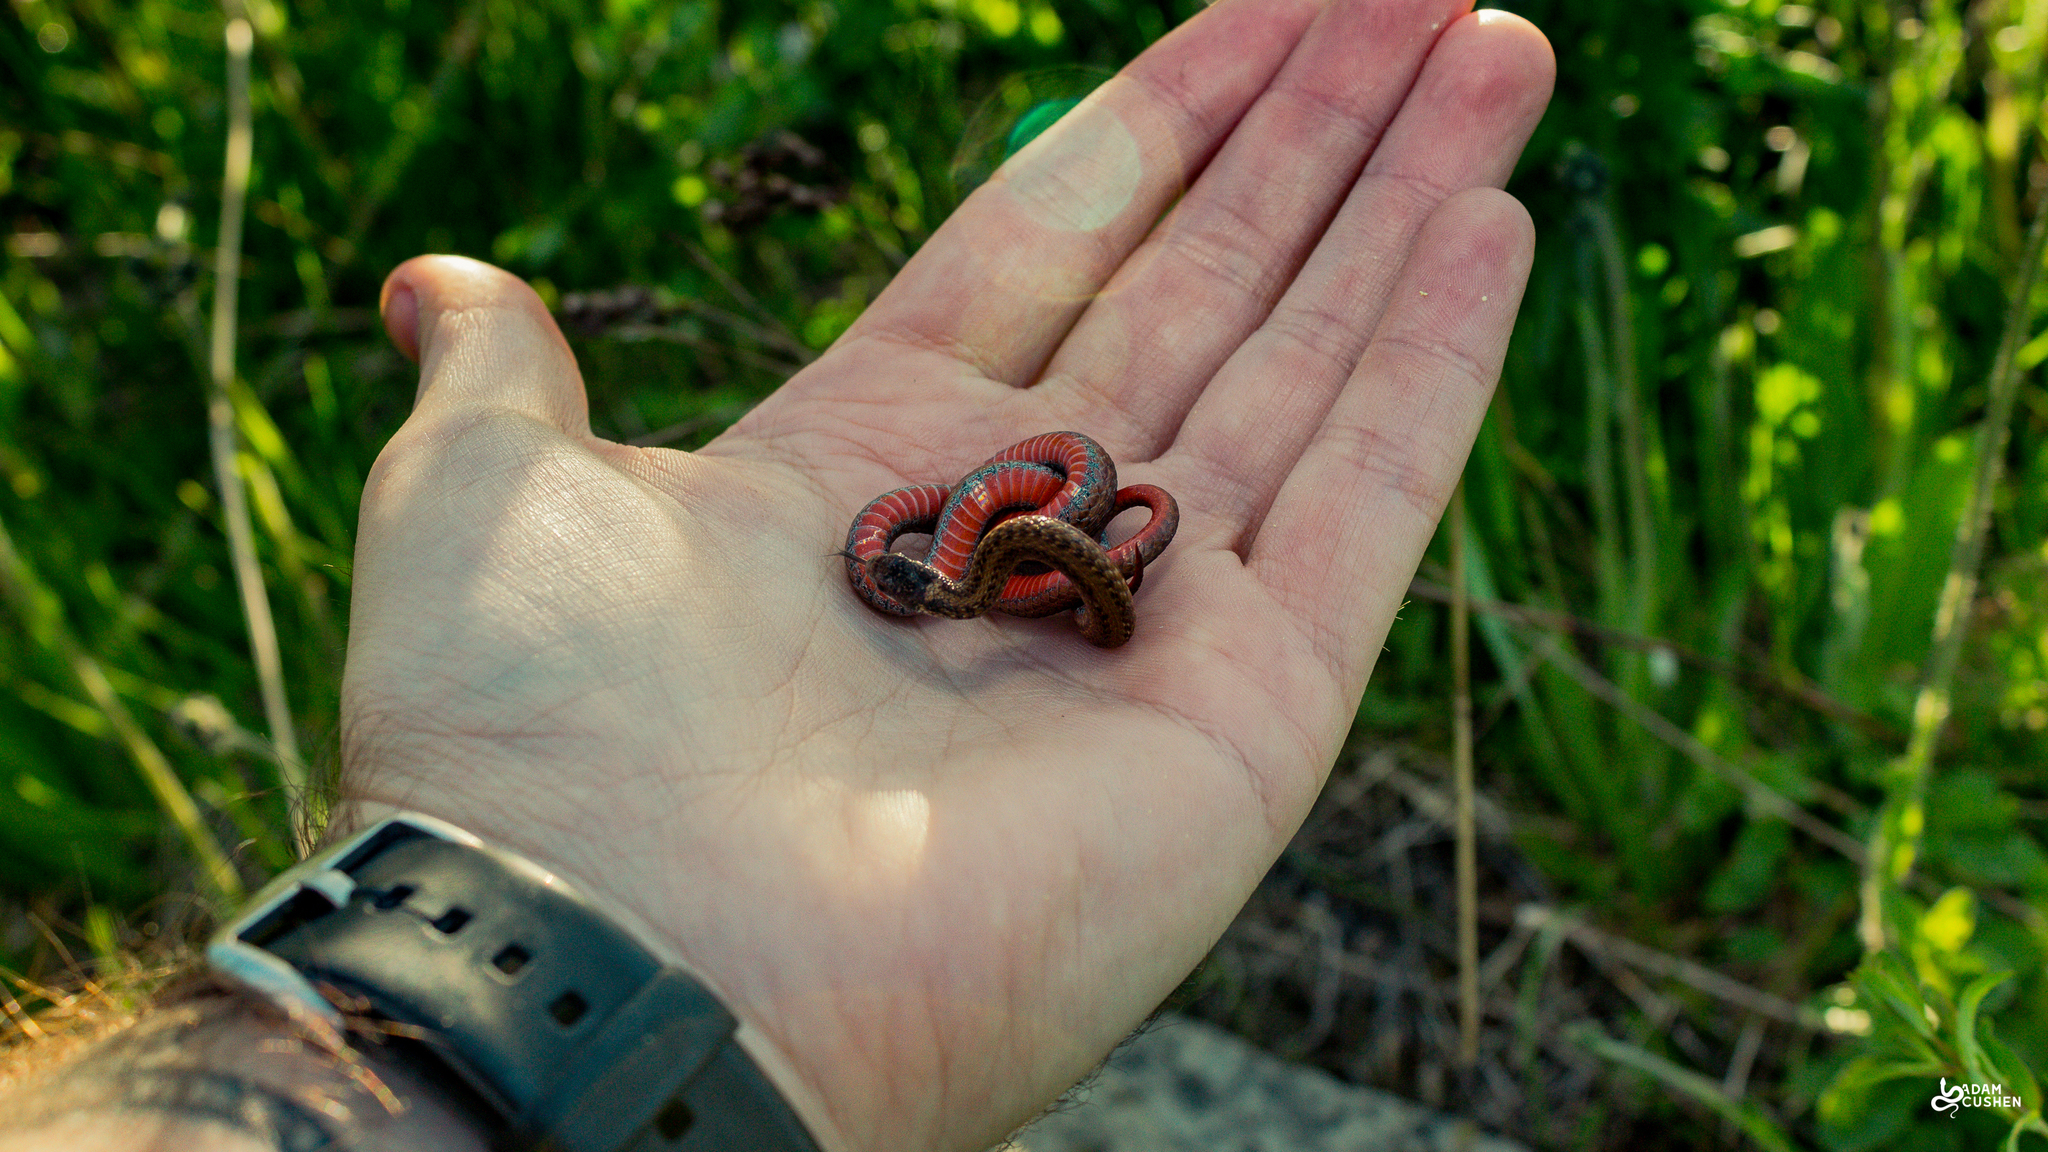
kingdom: Animalia
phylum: Chordata
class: Squamata
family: Colubridae
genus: Storeria
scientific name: Storeria occipitomaculata
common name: Redbelly snake
